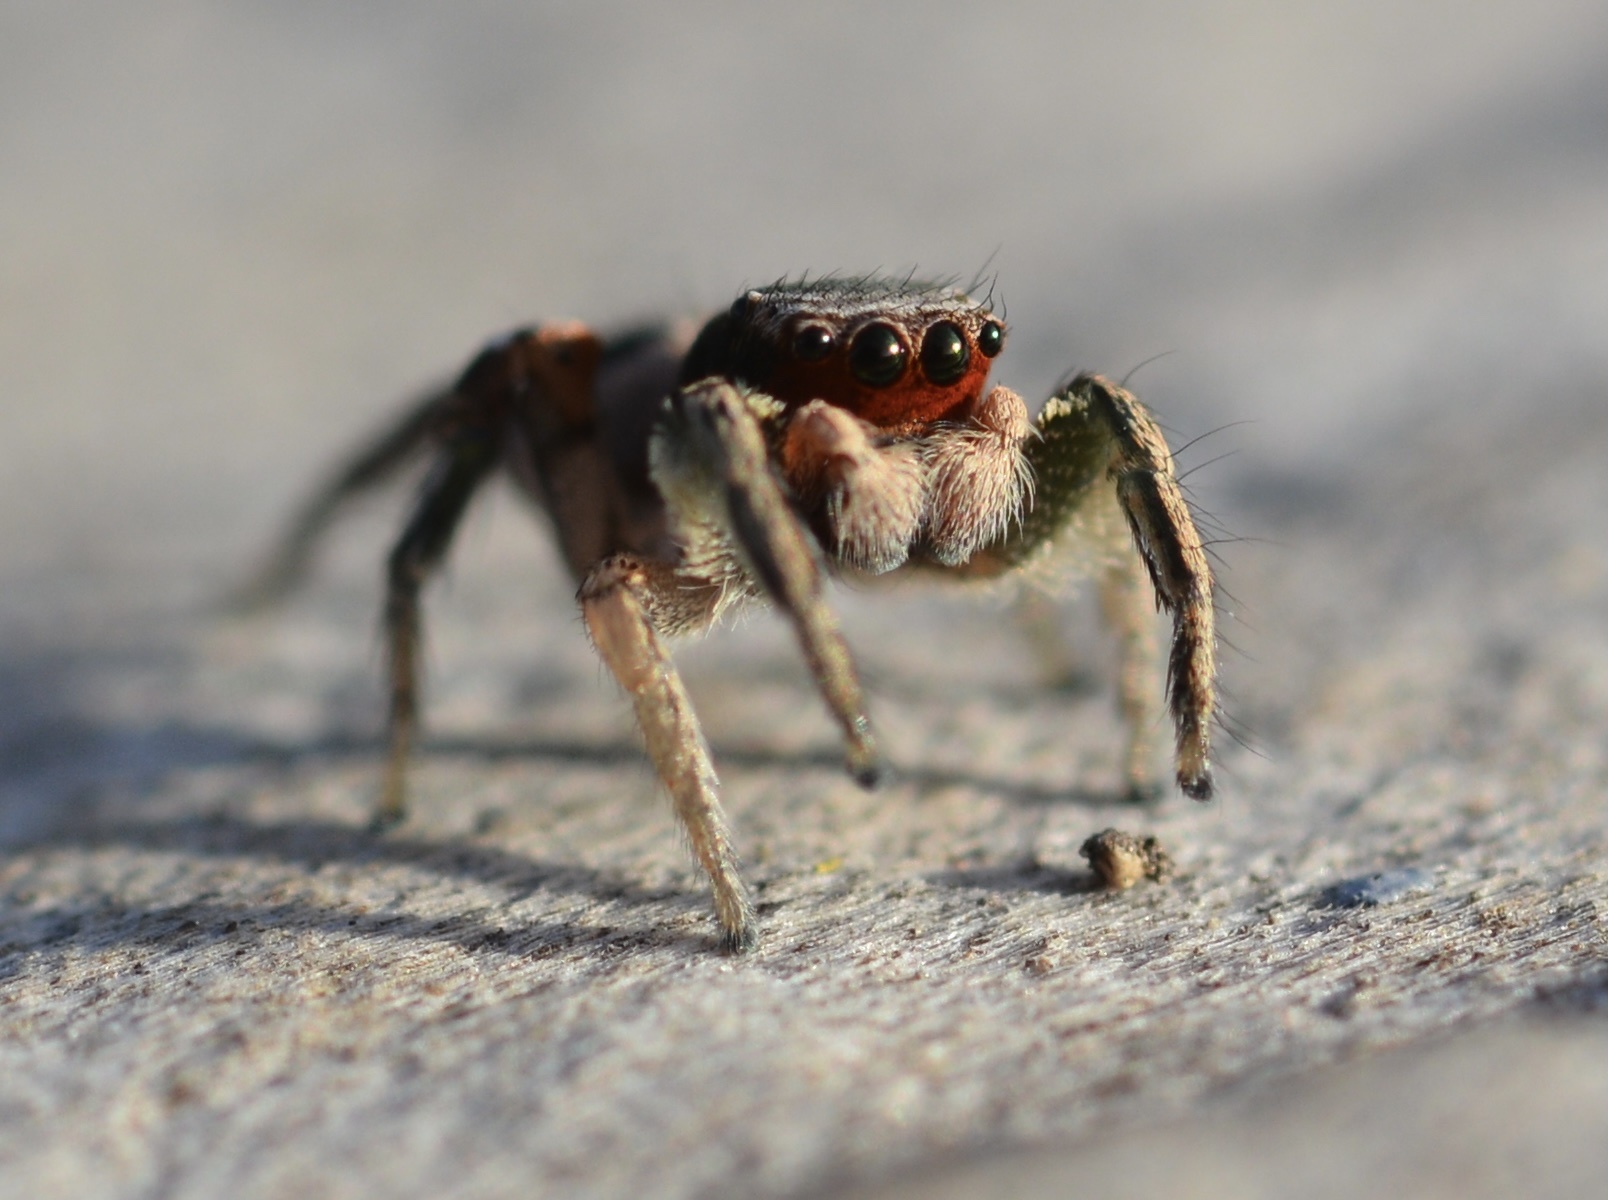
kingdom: Animalia
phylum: Arthropoda
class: Arachnida
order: Araneae
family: Salticidae
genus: Habronattus
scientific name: Habronattus pyrrithrix
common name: Jumping spider
